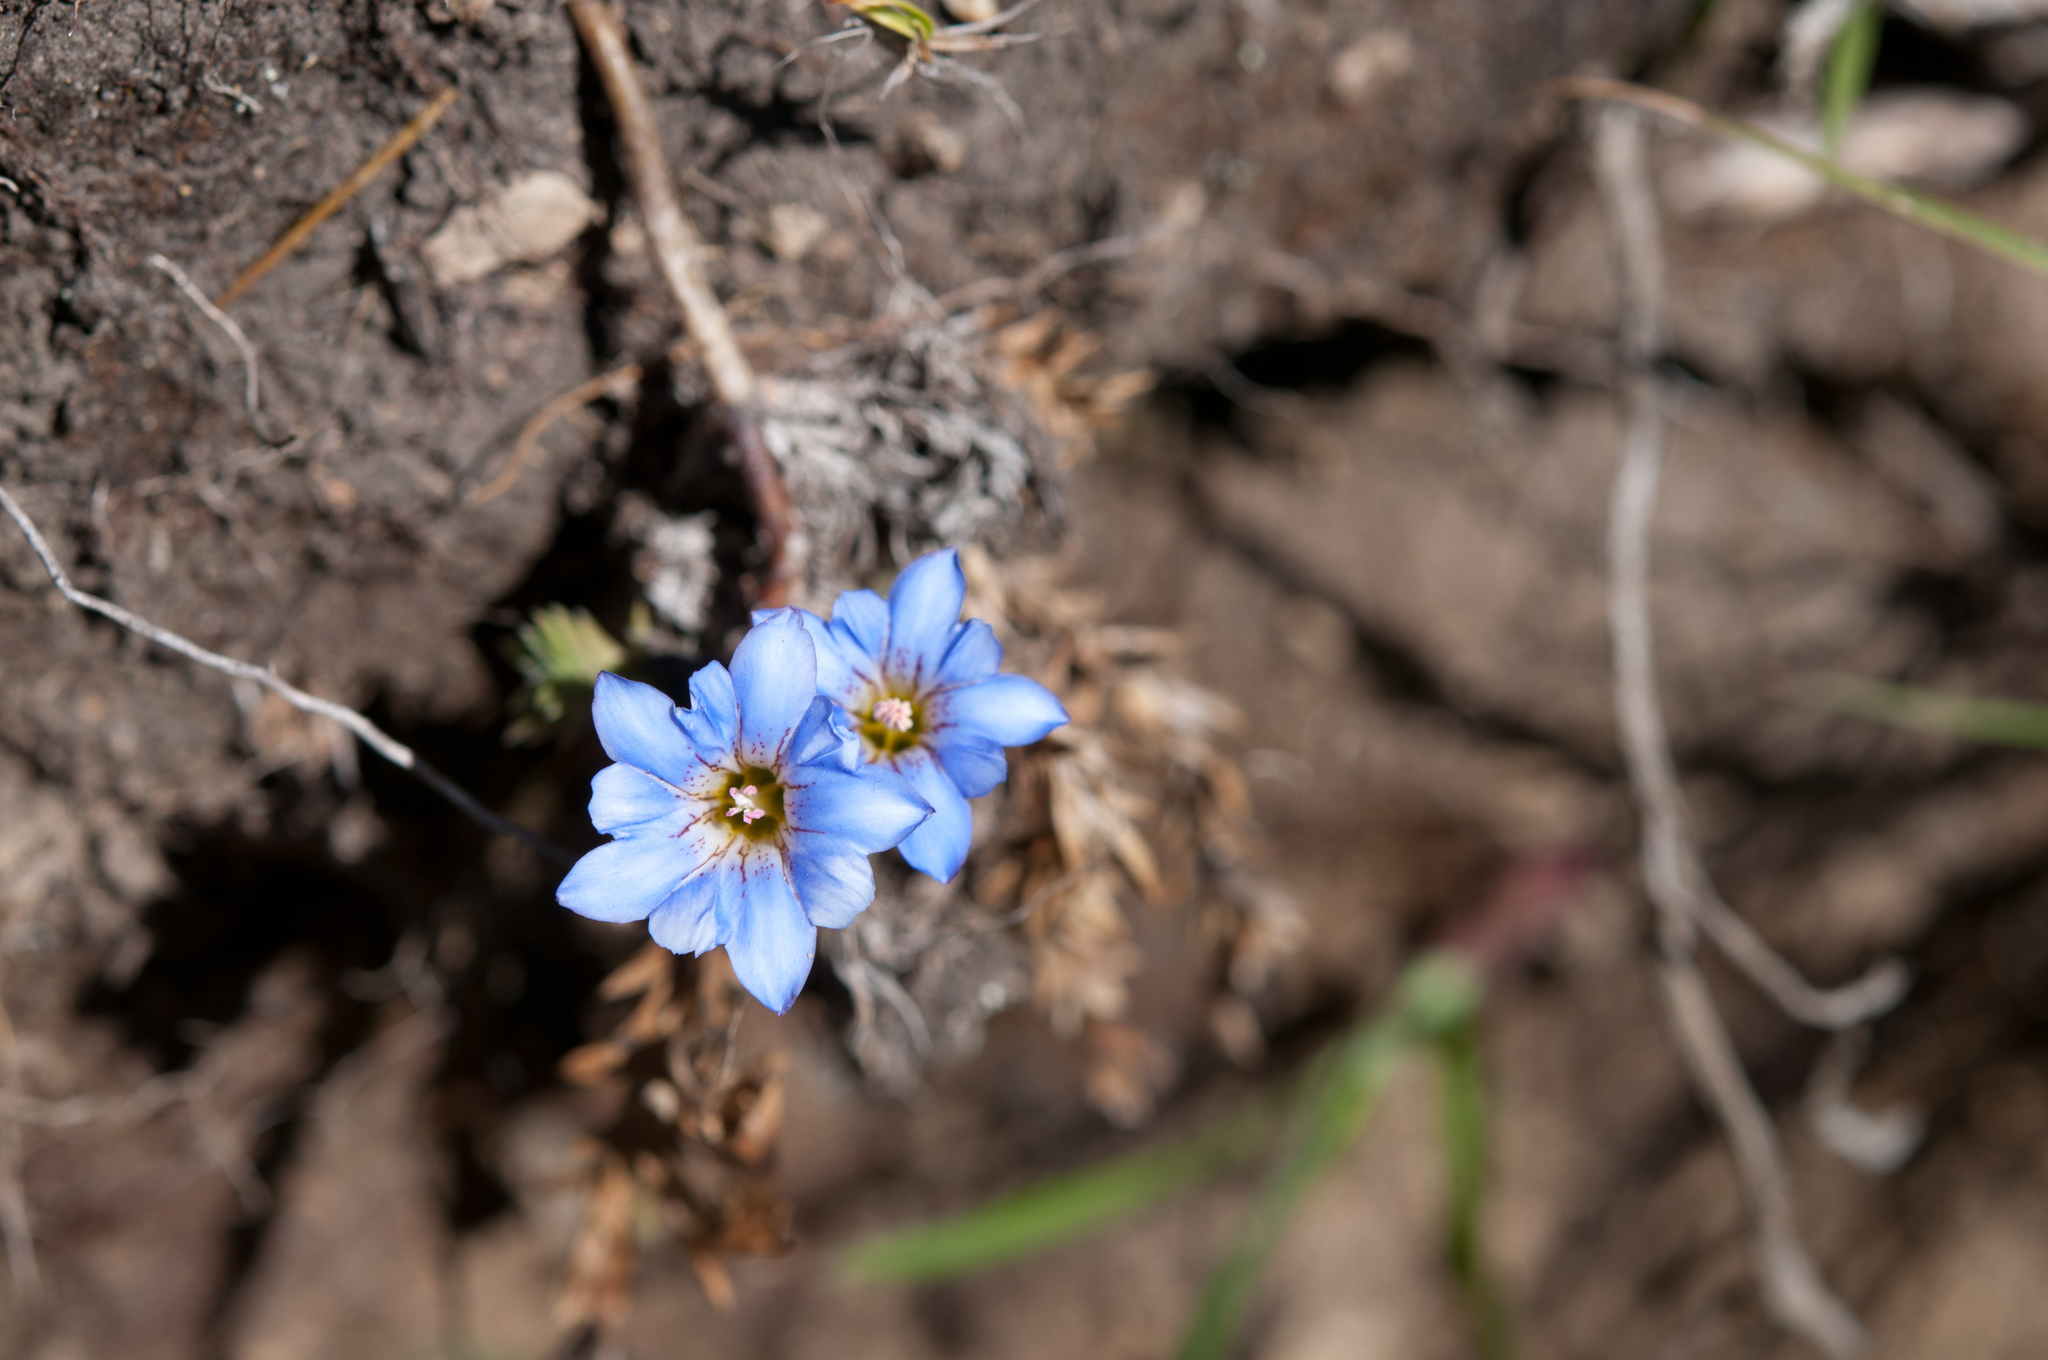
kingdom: Plantae
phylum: Tracheophyta
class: Magnoliopsida
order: Gentianales
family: Gentianaceae
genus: Gentiana
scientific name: Gentiana arisanensis
